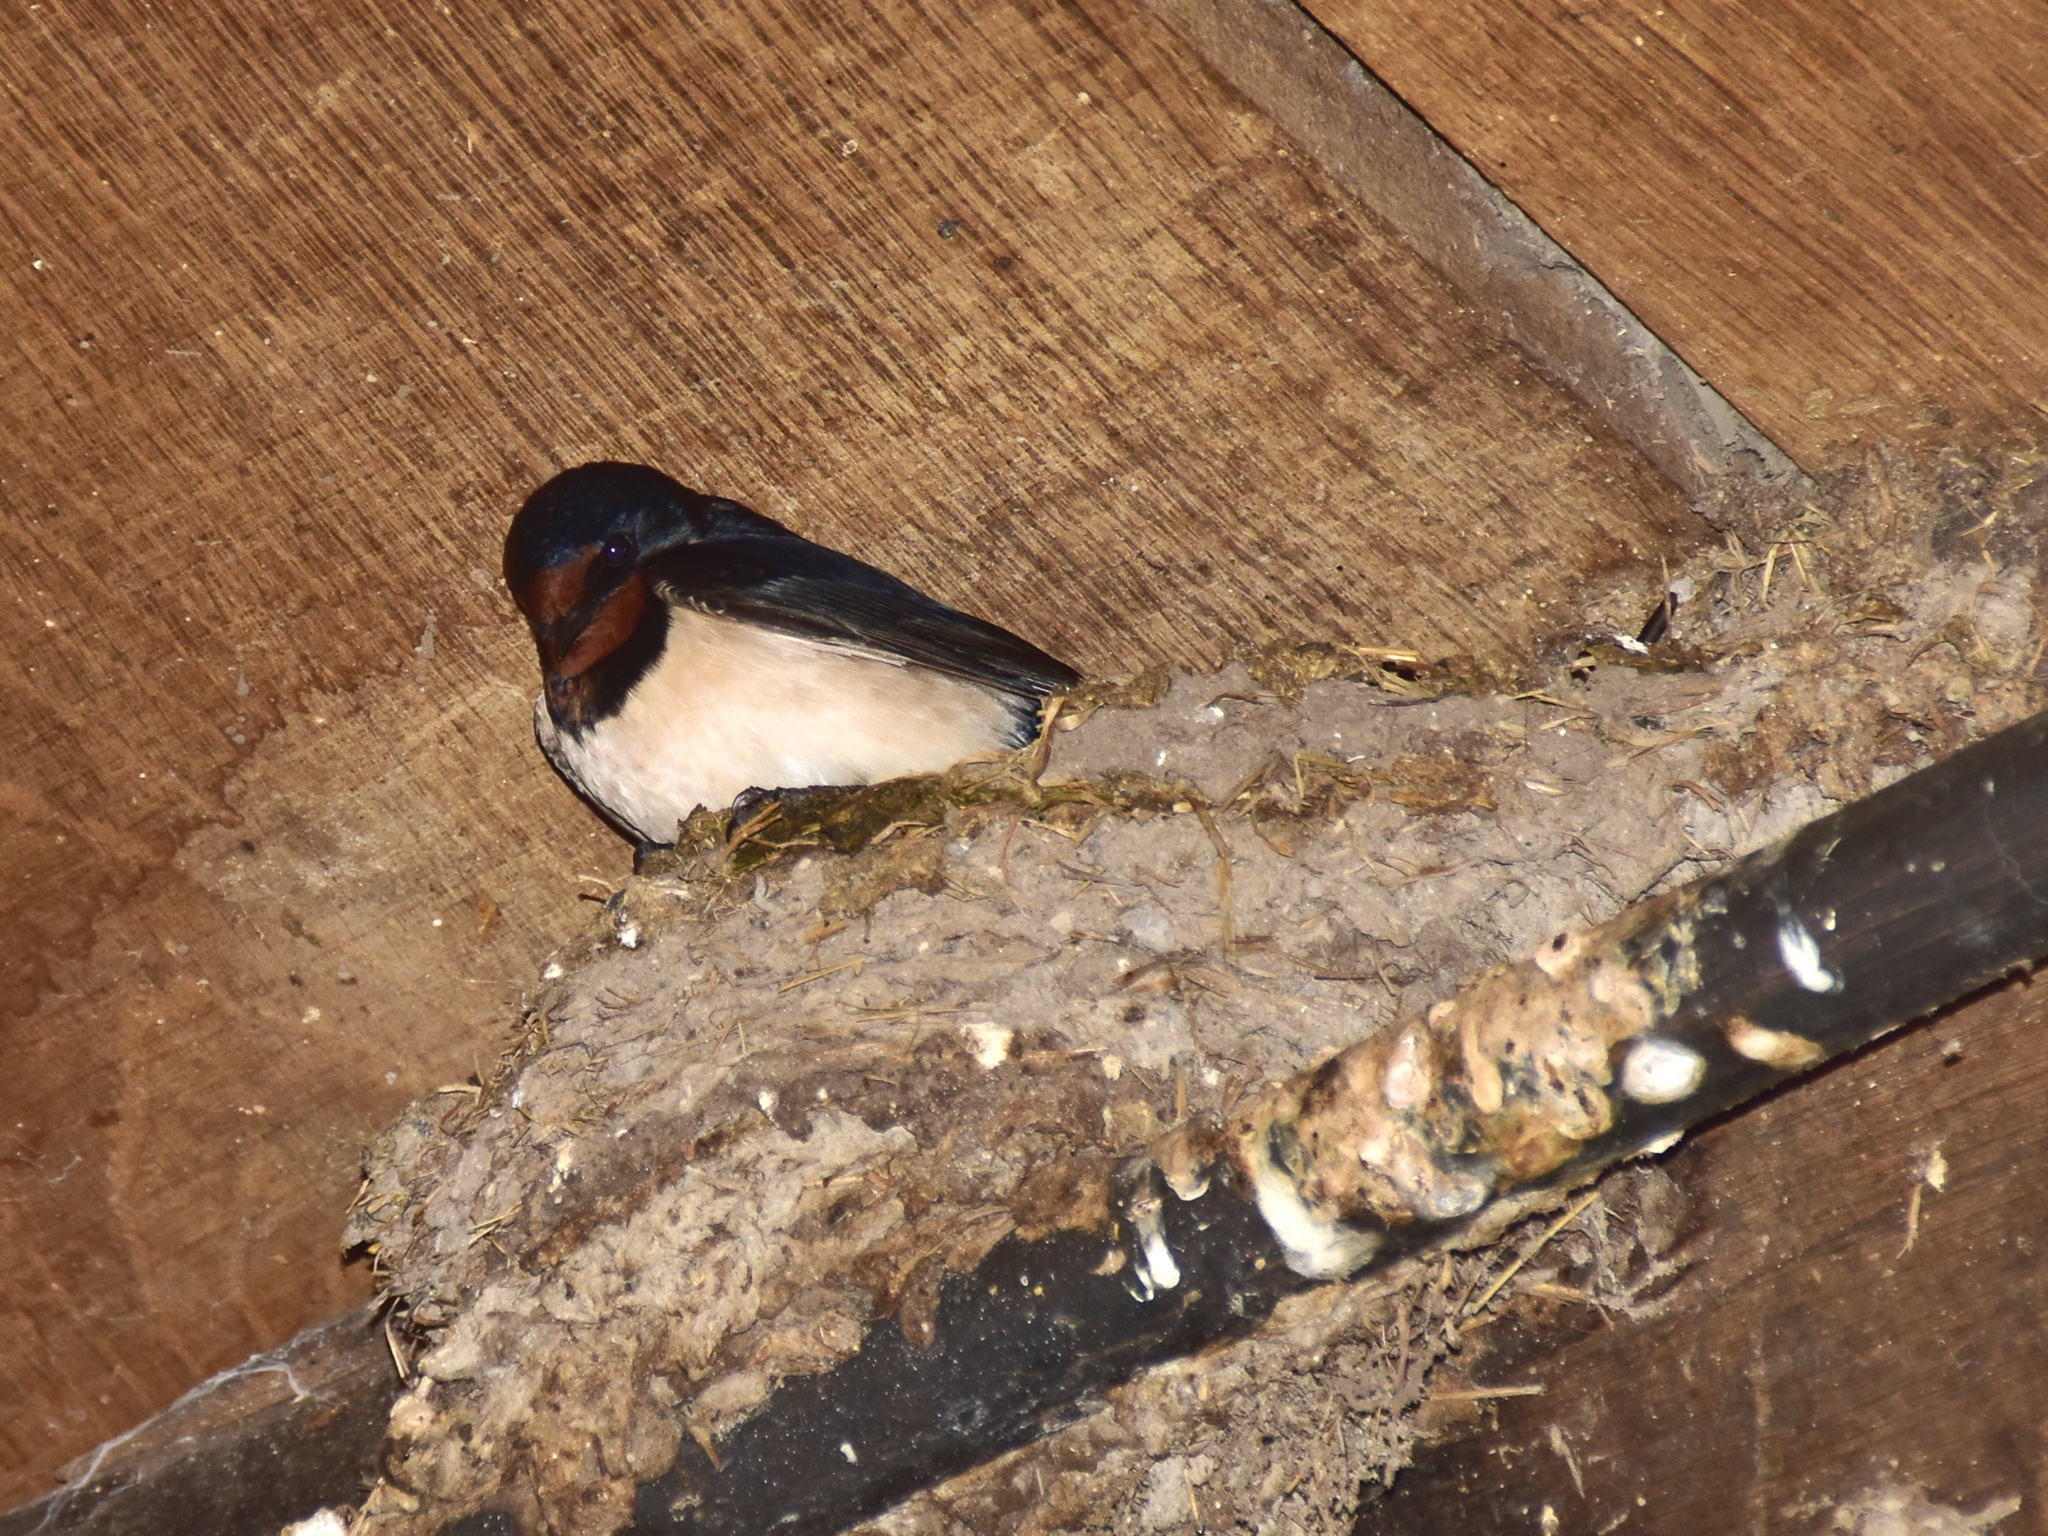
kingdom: Animalia
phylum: Chordata
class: Aves
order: Passeriformes
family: Hirundinidae
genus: Hirundo
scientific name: Hirundo rustica
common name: Barn swallow
